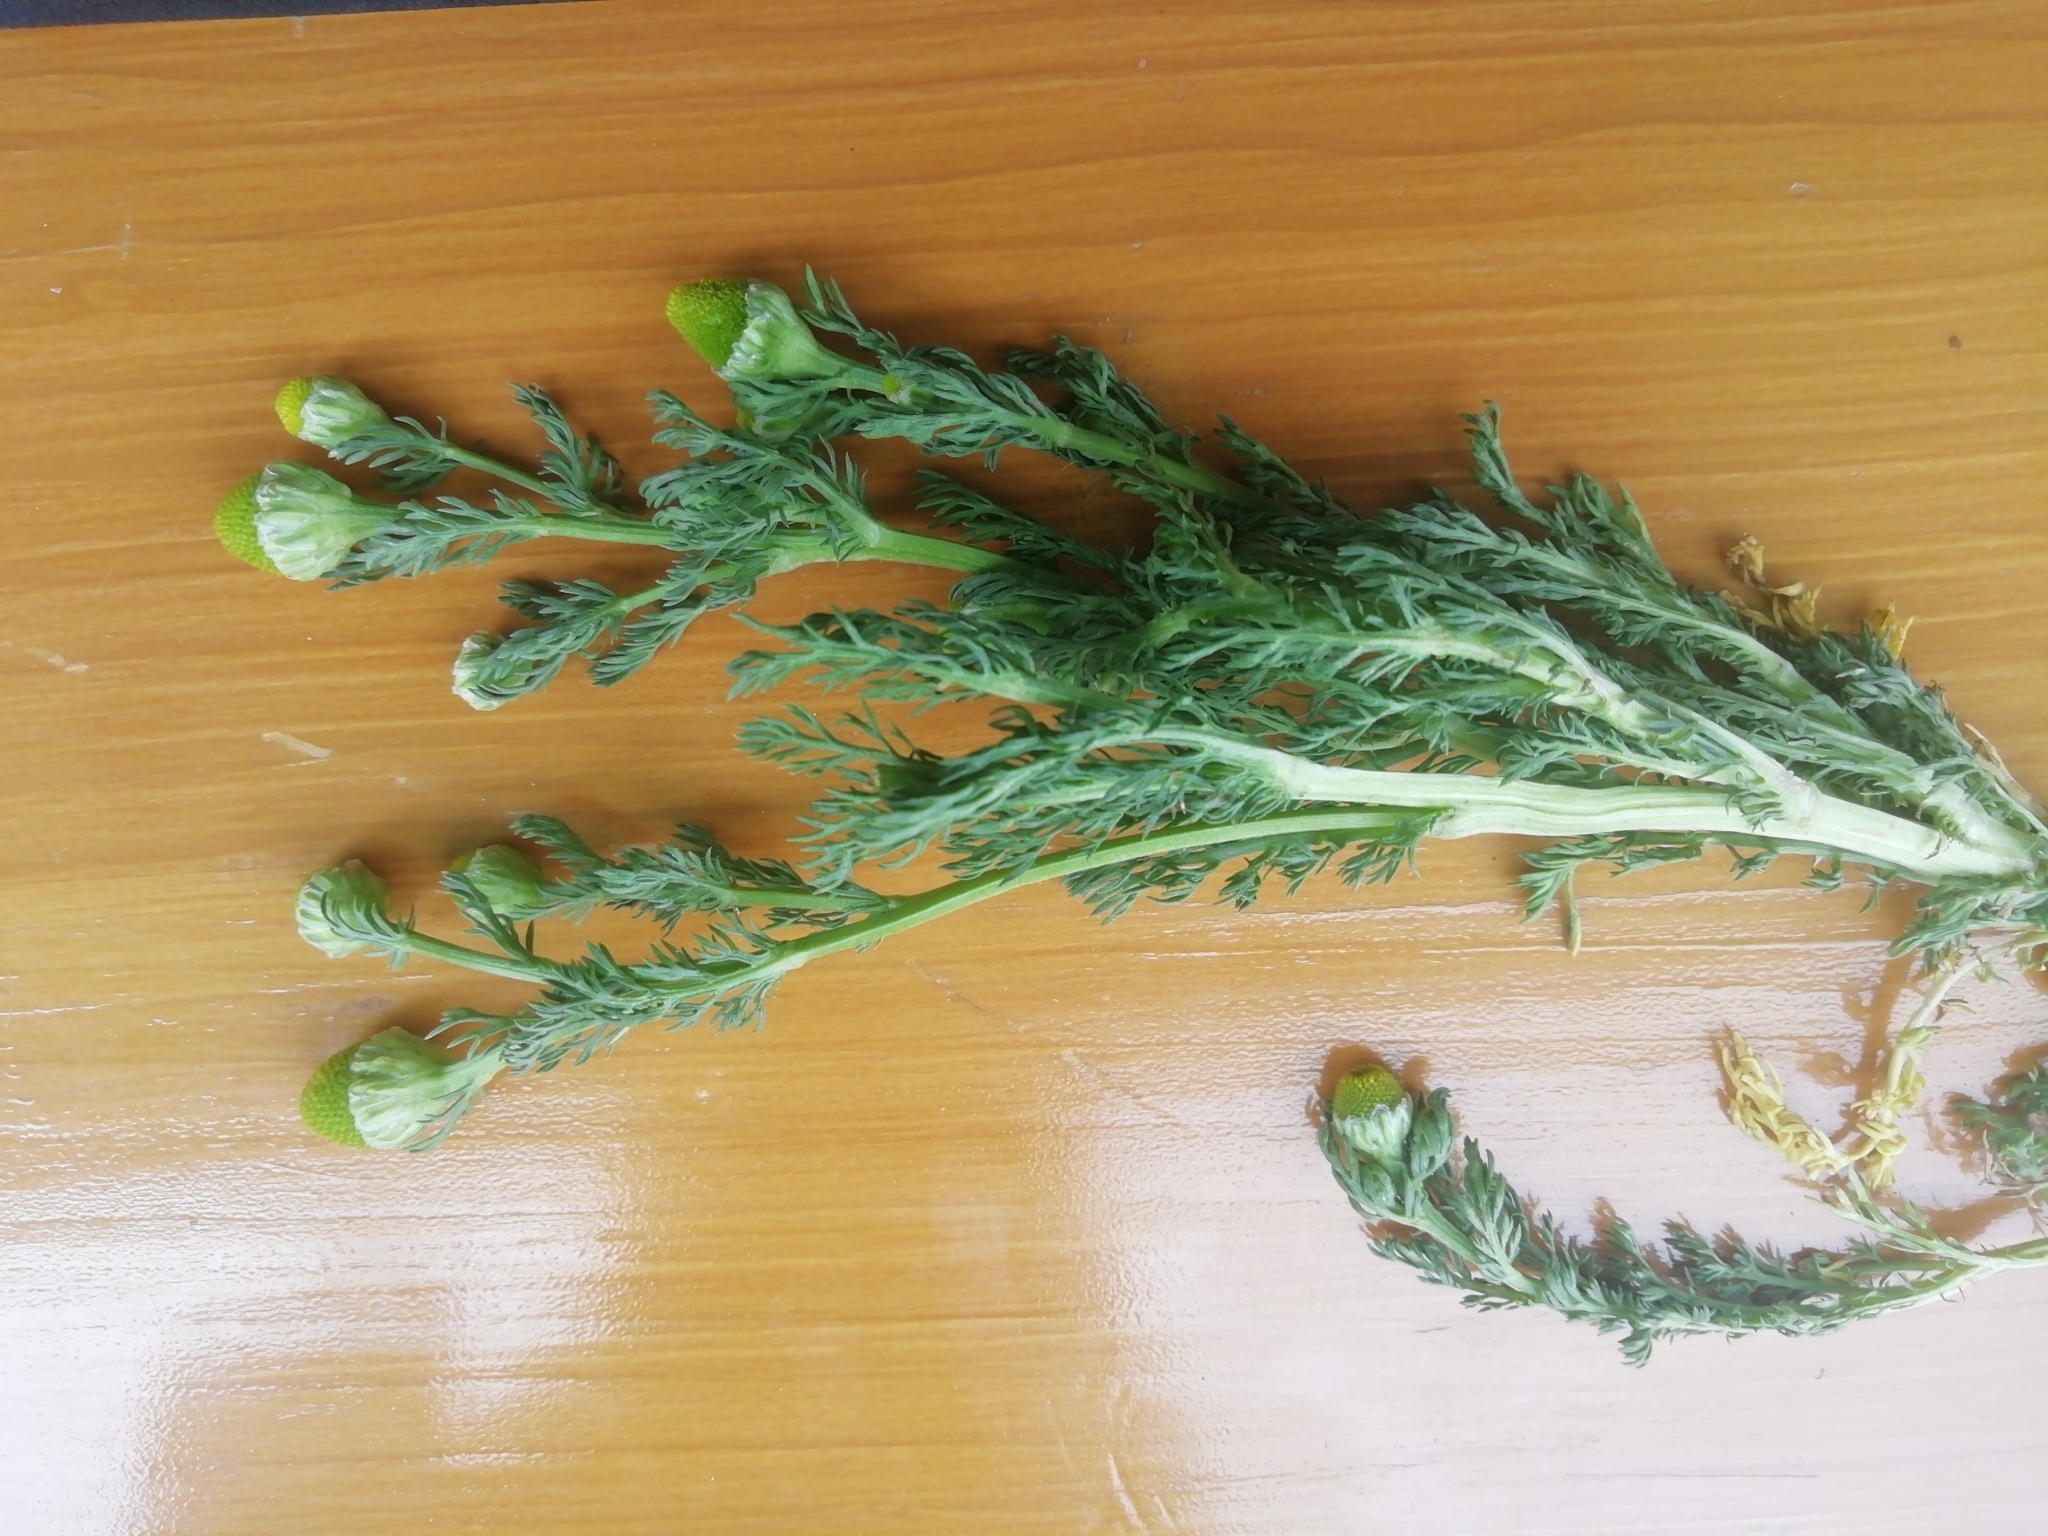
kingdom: Plantae
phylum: Tracheophyta
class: Magnoliopsida
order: Asterales
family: Asteraceae
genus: Matricaria
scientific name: Matricaria discoidea
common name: Disc mayweed
